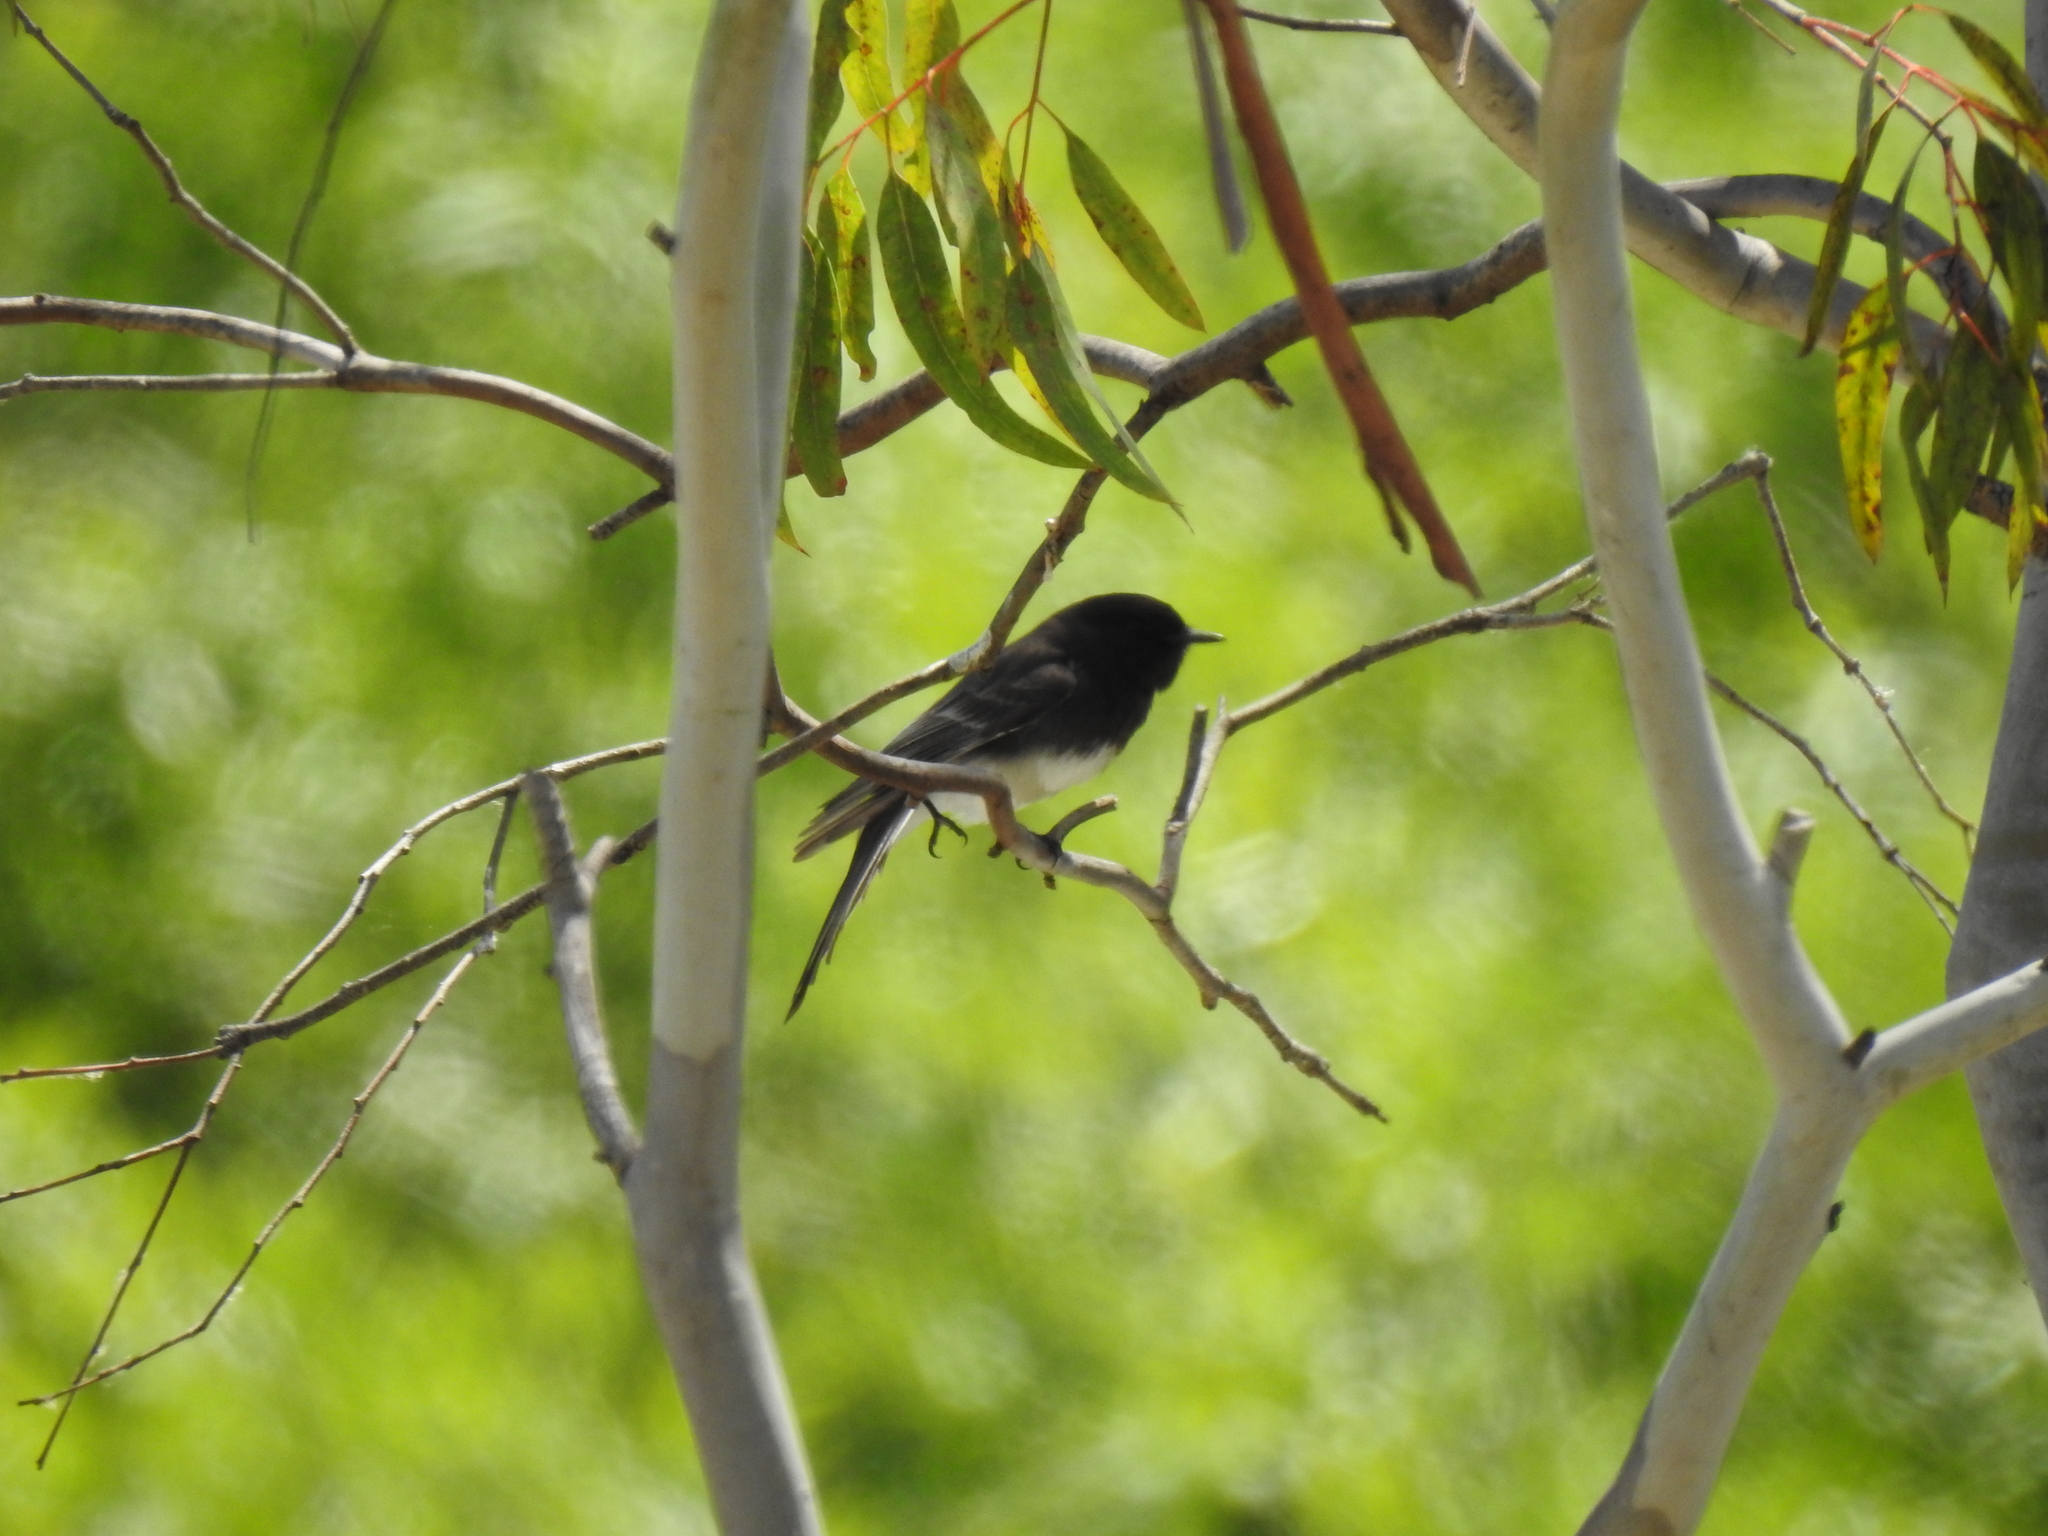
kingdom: Animalia
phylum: Chordata
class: Aves
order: Passeriformes
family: Tyrannidae
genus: Sayornis
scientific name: Sayornis nigricans
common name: Black phoebe
